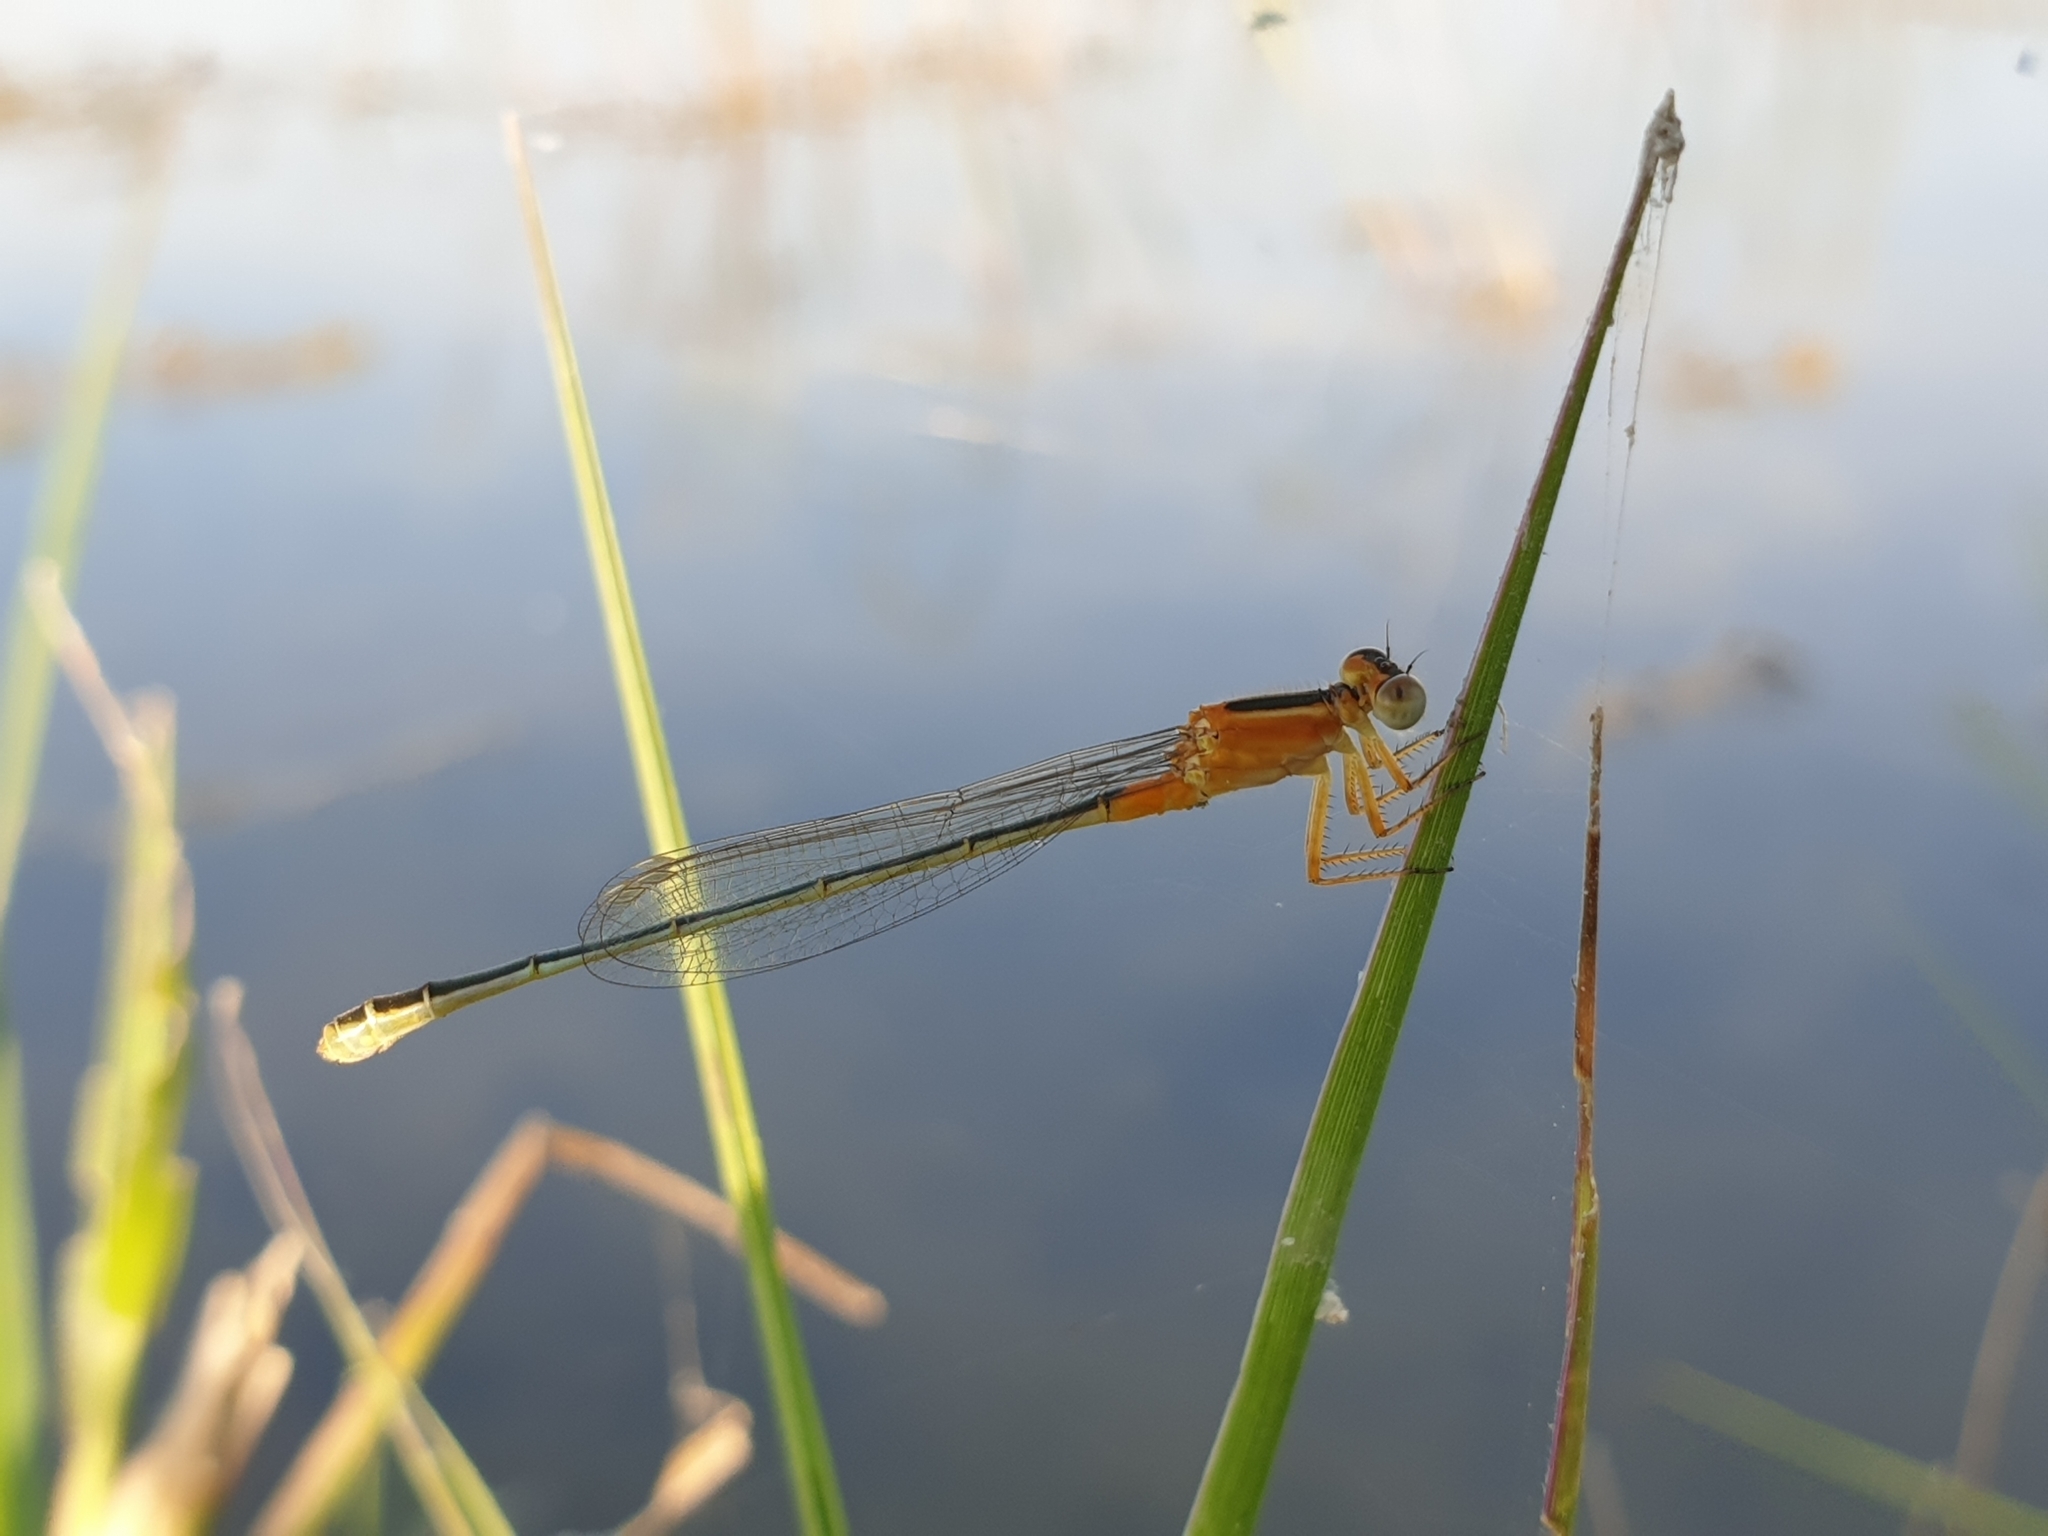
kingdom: Animalia
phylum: Arthropoda
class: Insecta
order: Odonata
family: Coenagrionidae
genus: Ischnura
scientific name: Ischnura senegalensis
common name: Tropical bluetail
